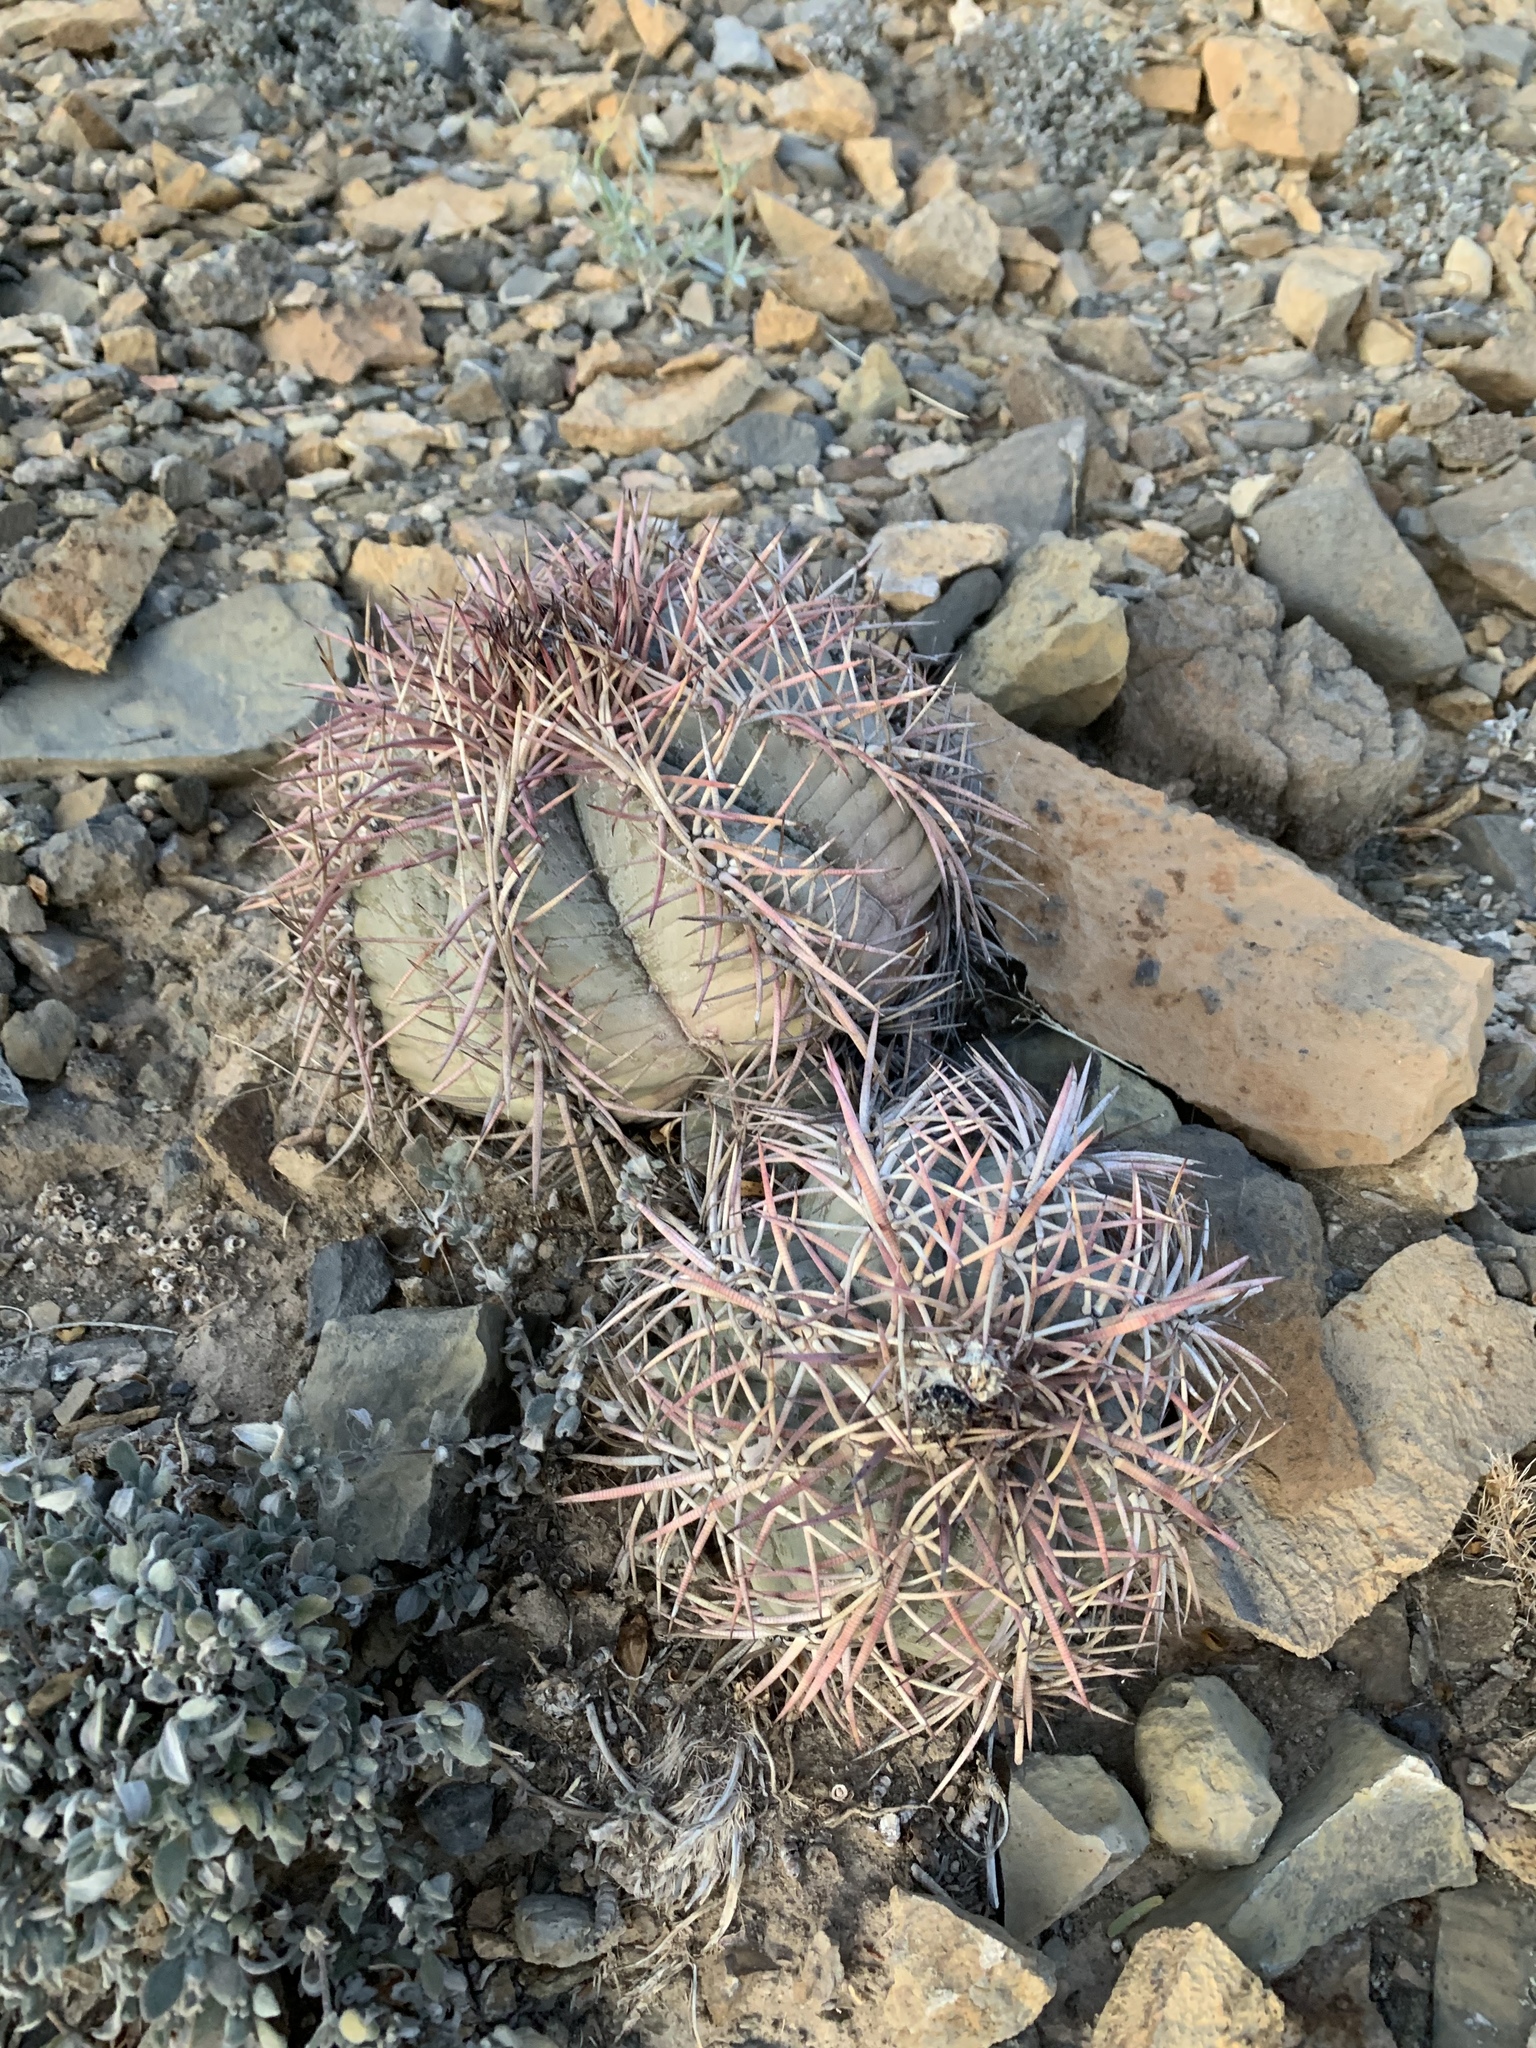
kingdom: Plantae
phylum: Tracheophyta
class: Magnoliopsida
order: Caryophyllales
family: Cactaceae
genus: Echinocactus
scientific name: Echinocactus horizonthalonius
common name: Devilshead
